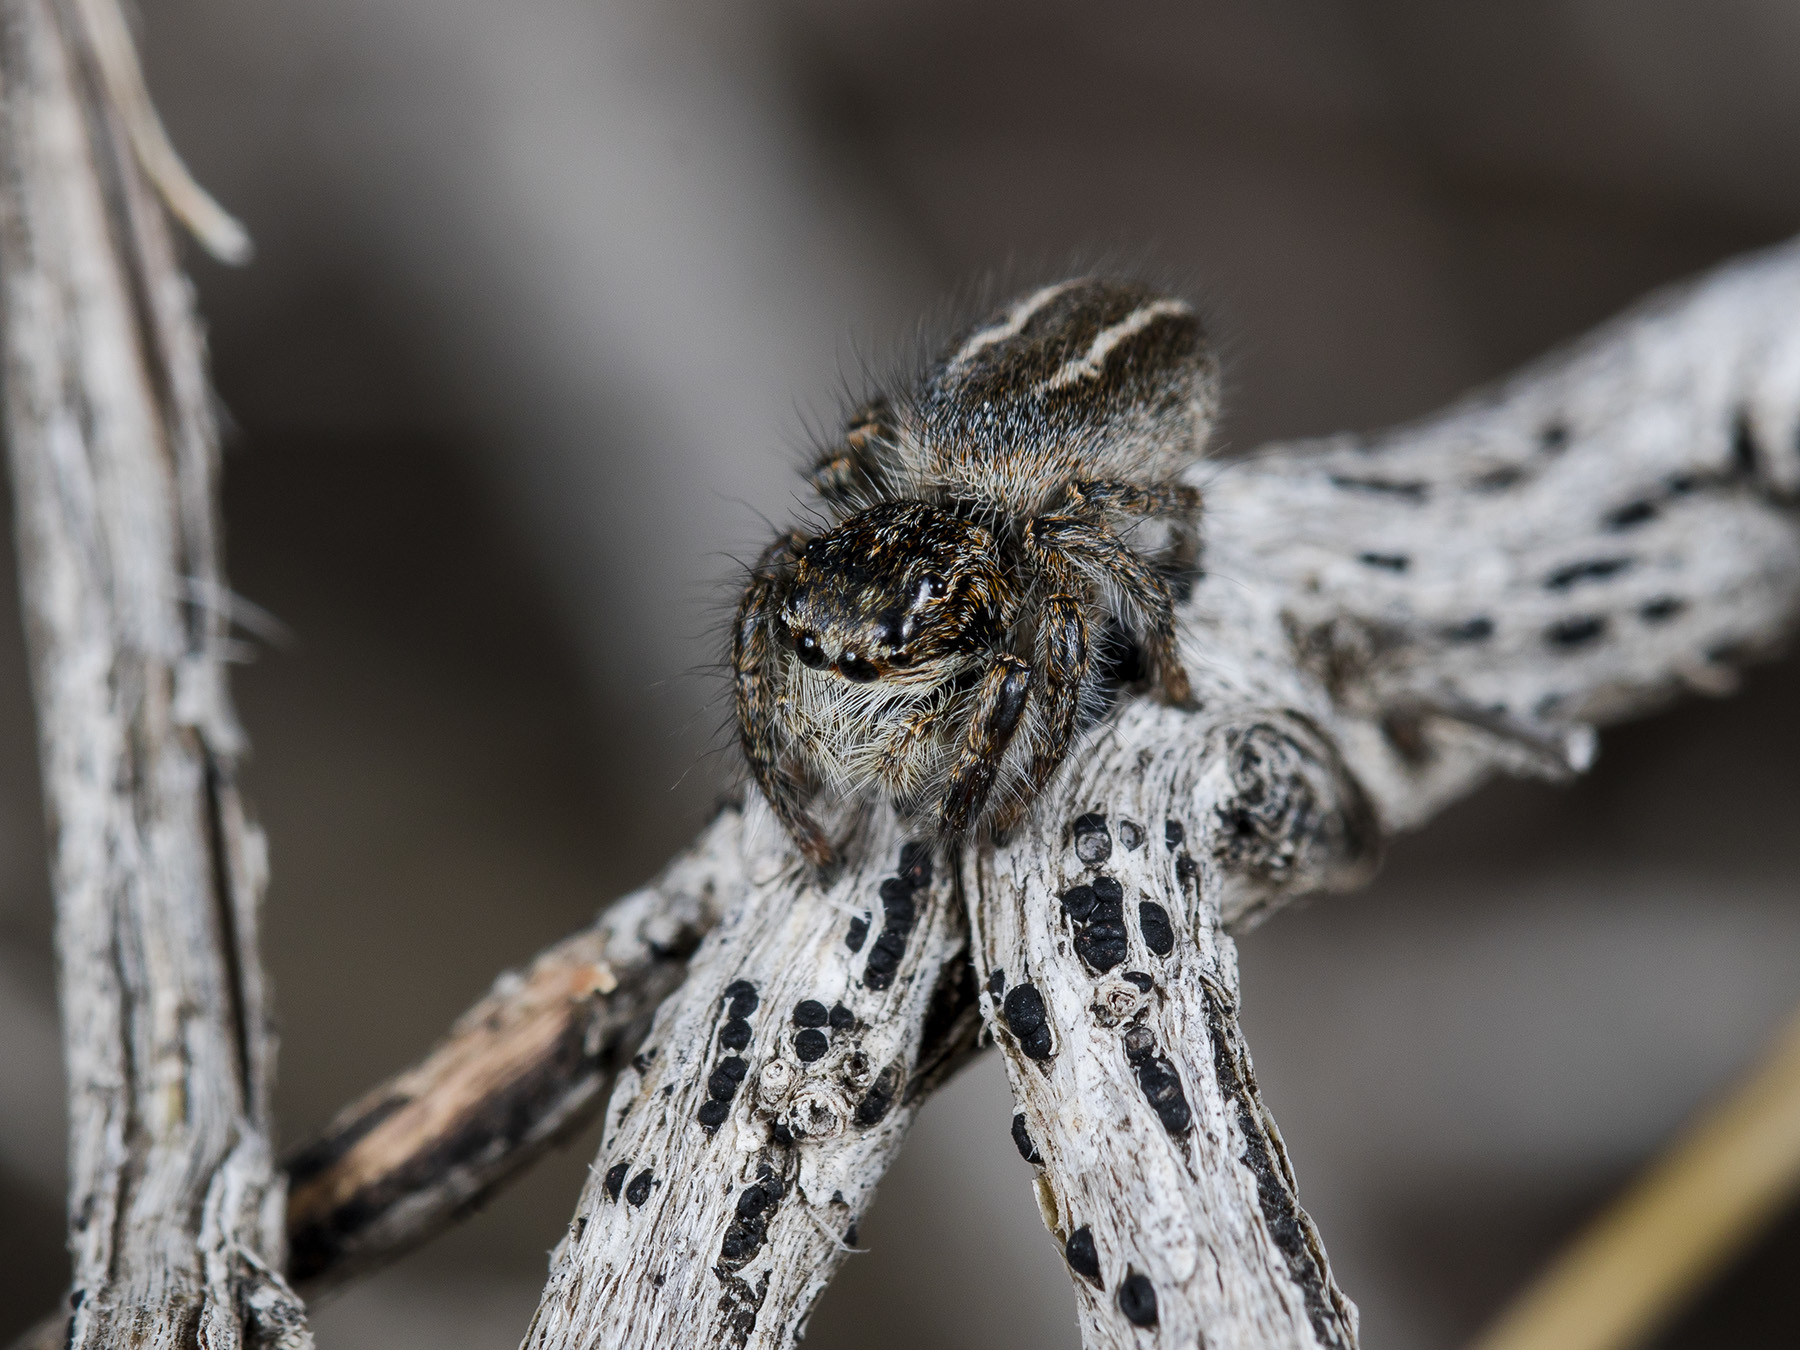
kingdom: Animalia
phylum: Arthropoda
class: Arachnida
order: Araneae
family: Salticidae
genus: Philaeus
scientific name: Philaeus chrysops
